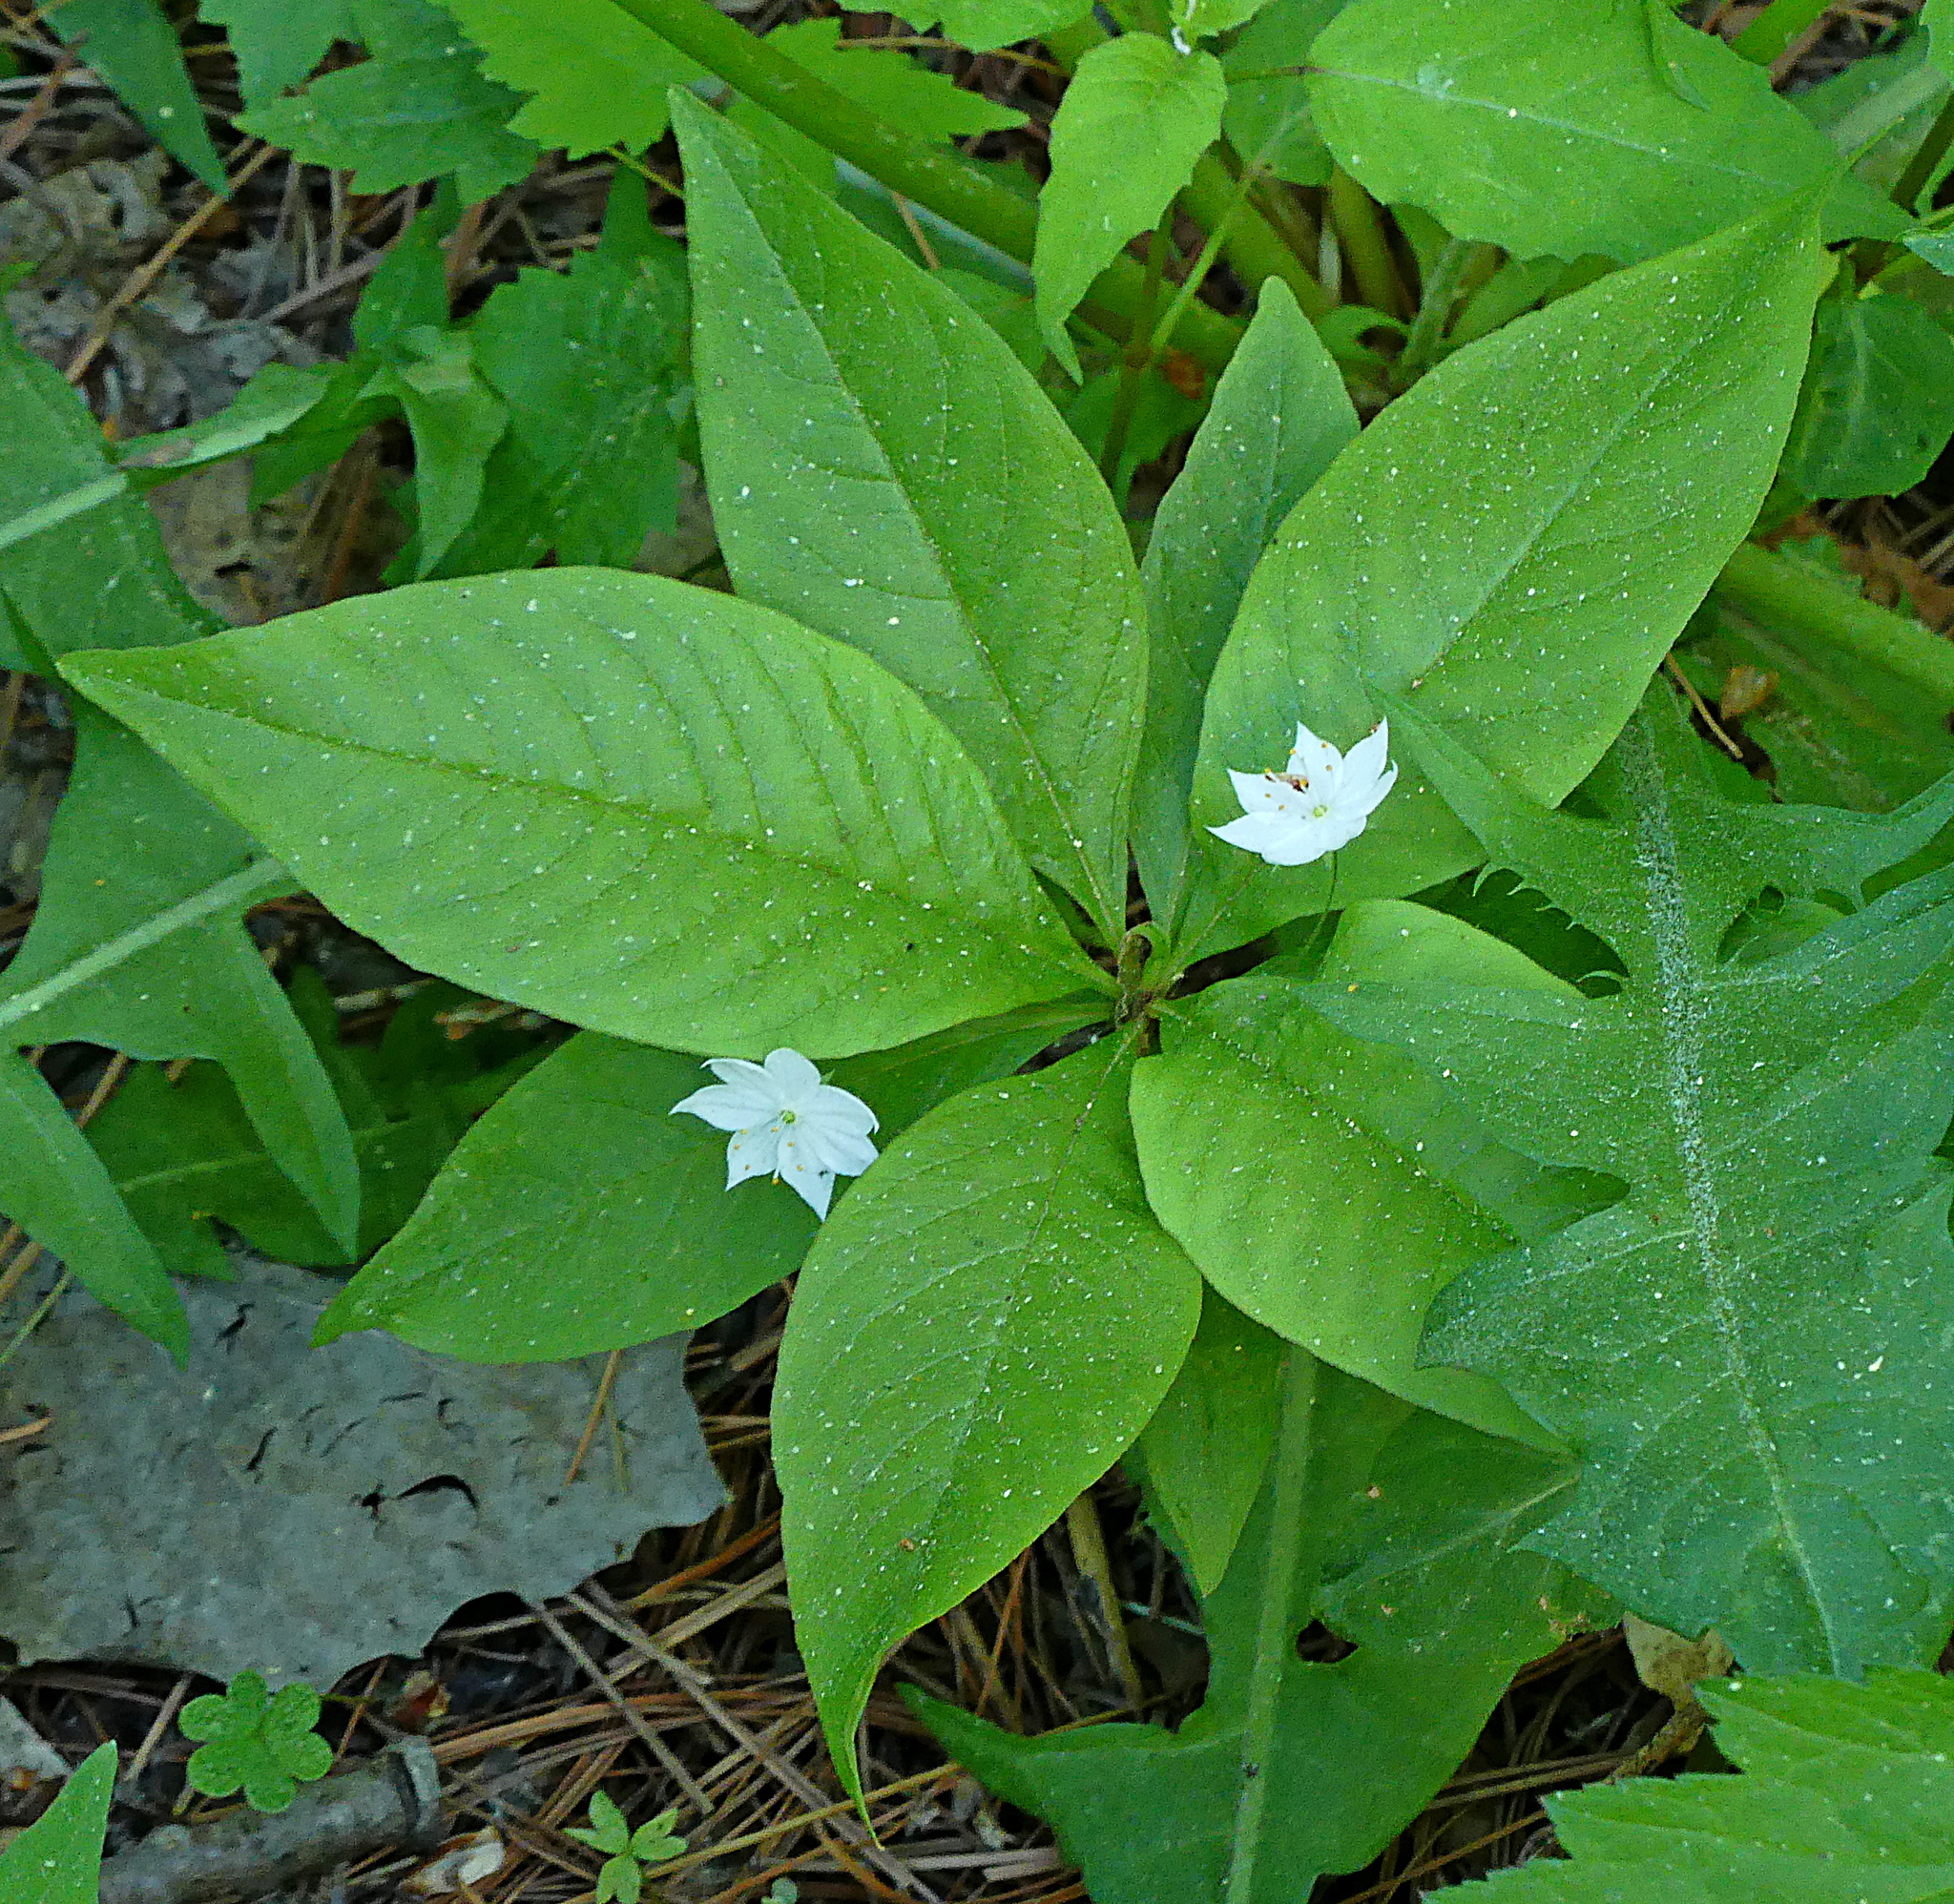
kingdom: Plantae
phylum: Tracheophyta
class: Magnoliopsida
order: Ericales
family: Primulaceae
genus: Lysimachia
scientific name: Lysimachia borealis
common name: American starflower
